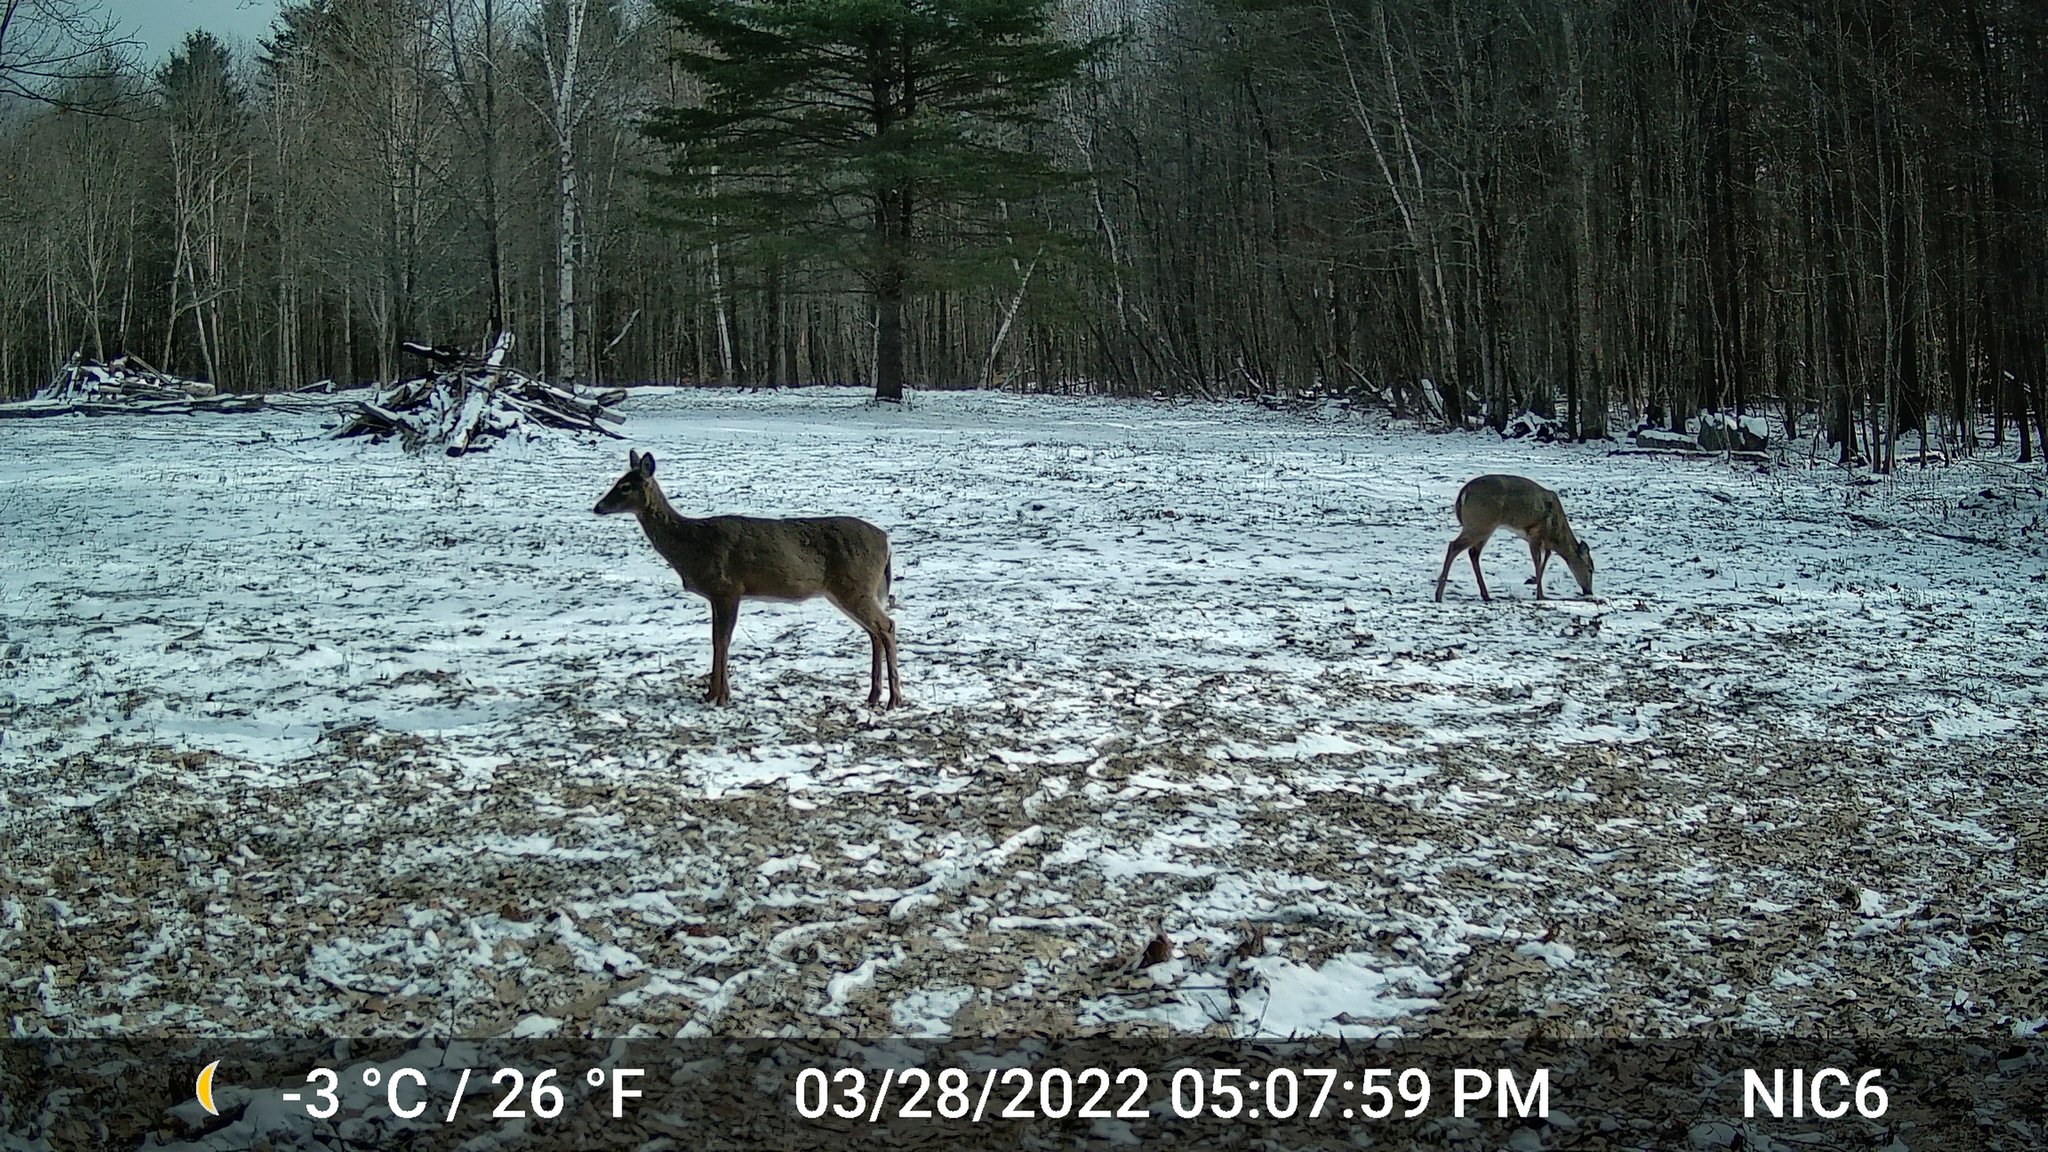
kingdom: Animalia
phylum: Chordata
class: Mammalia
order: Artiodactyla
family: Cervidae
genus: Odocoileus
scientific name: Odocoileus virginianus
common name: White-tailed deer
